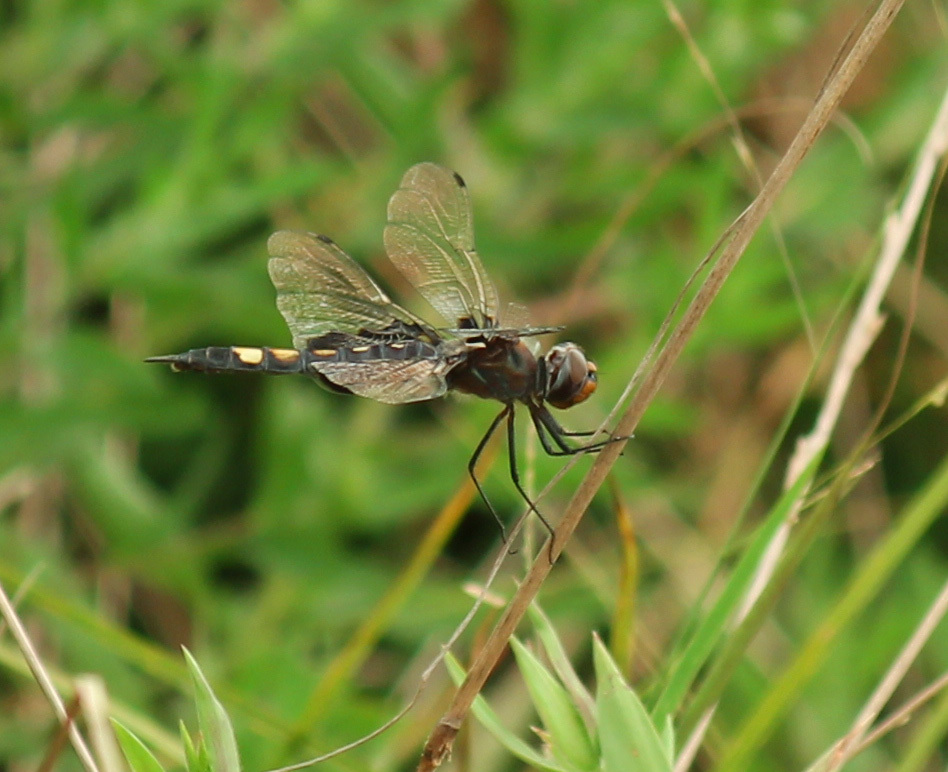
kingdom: Animalia
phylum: Arthropoda
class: Insecta
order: Odonata
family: Libellulidae
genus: Tramea
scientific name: Tramea lacerata
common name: Black saddlebags
